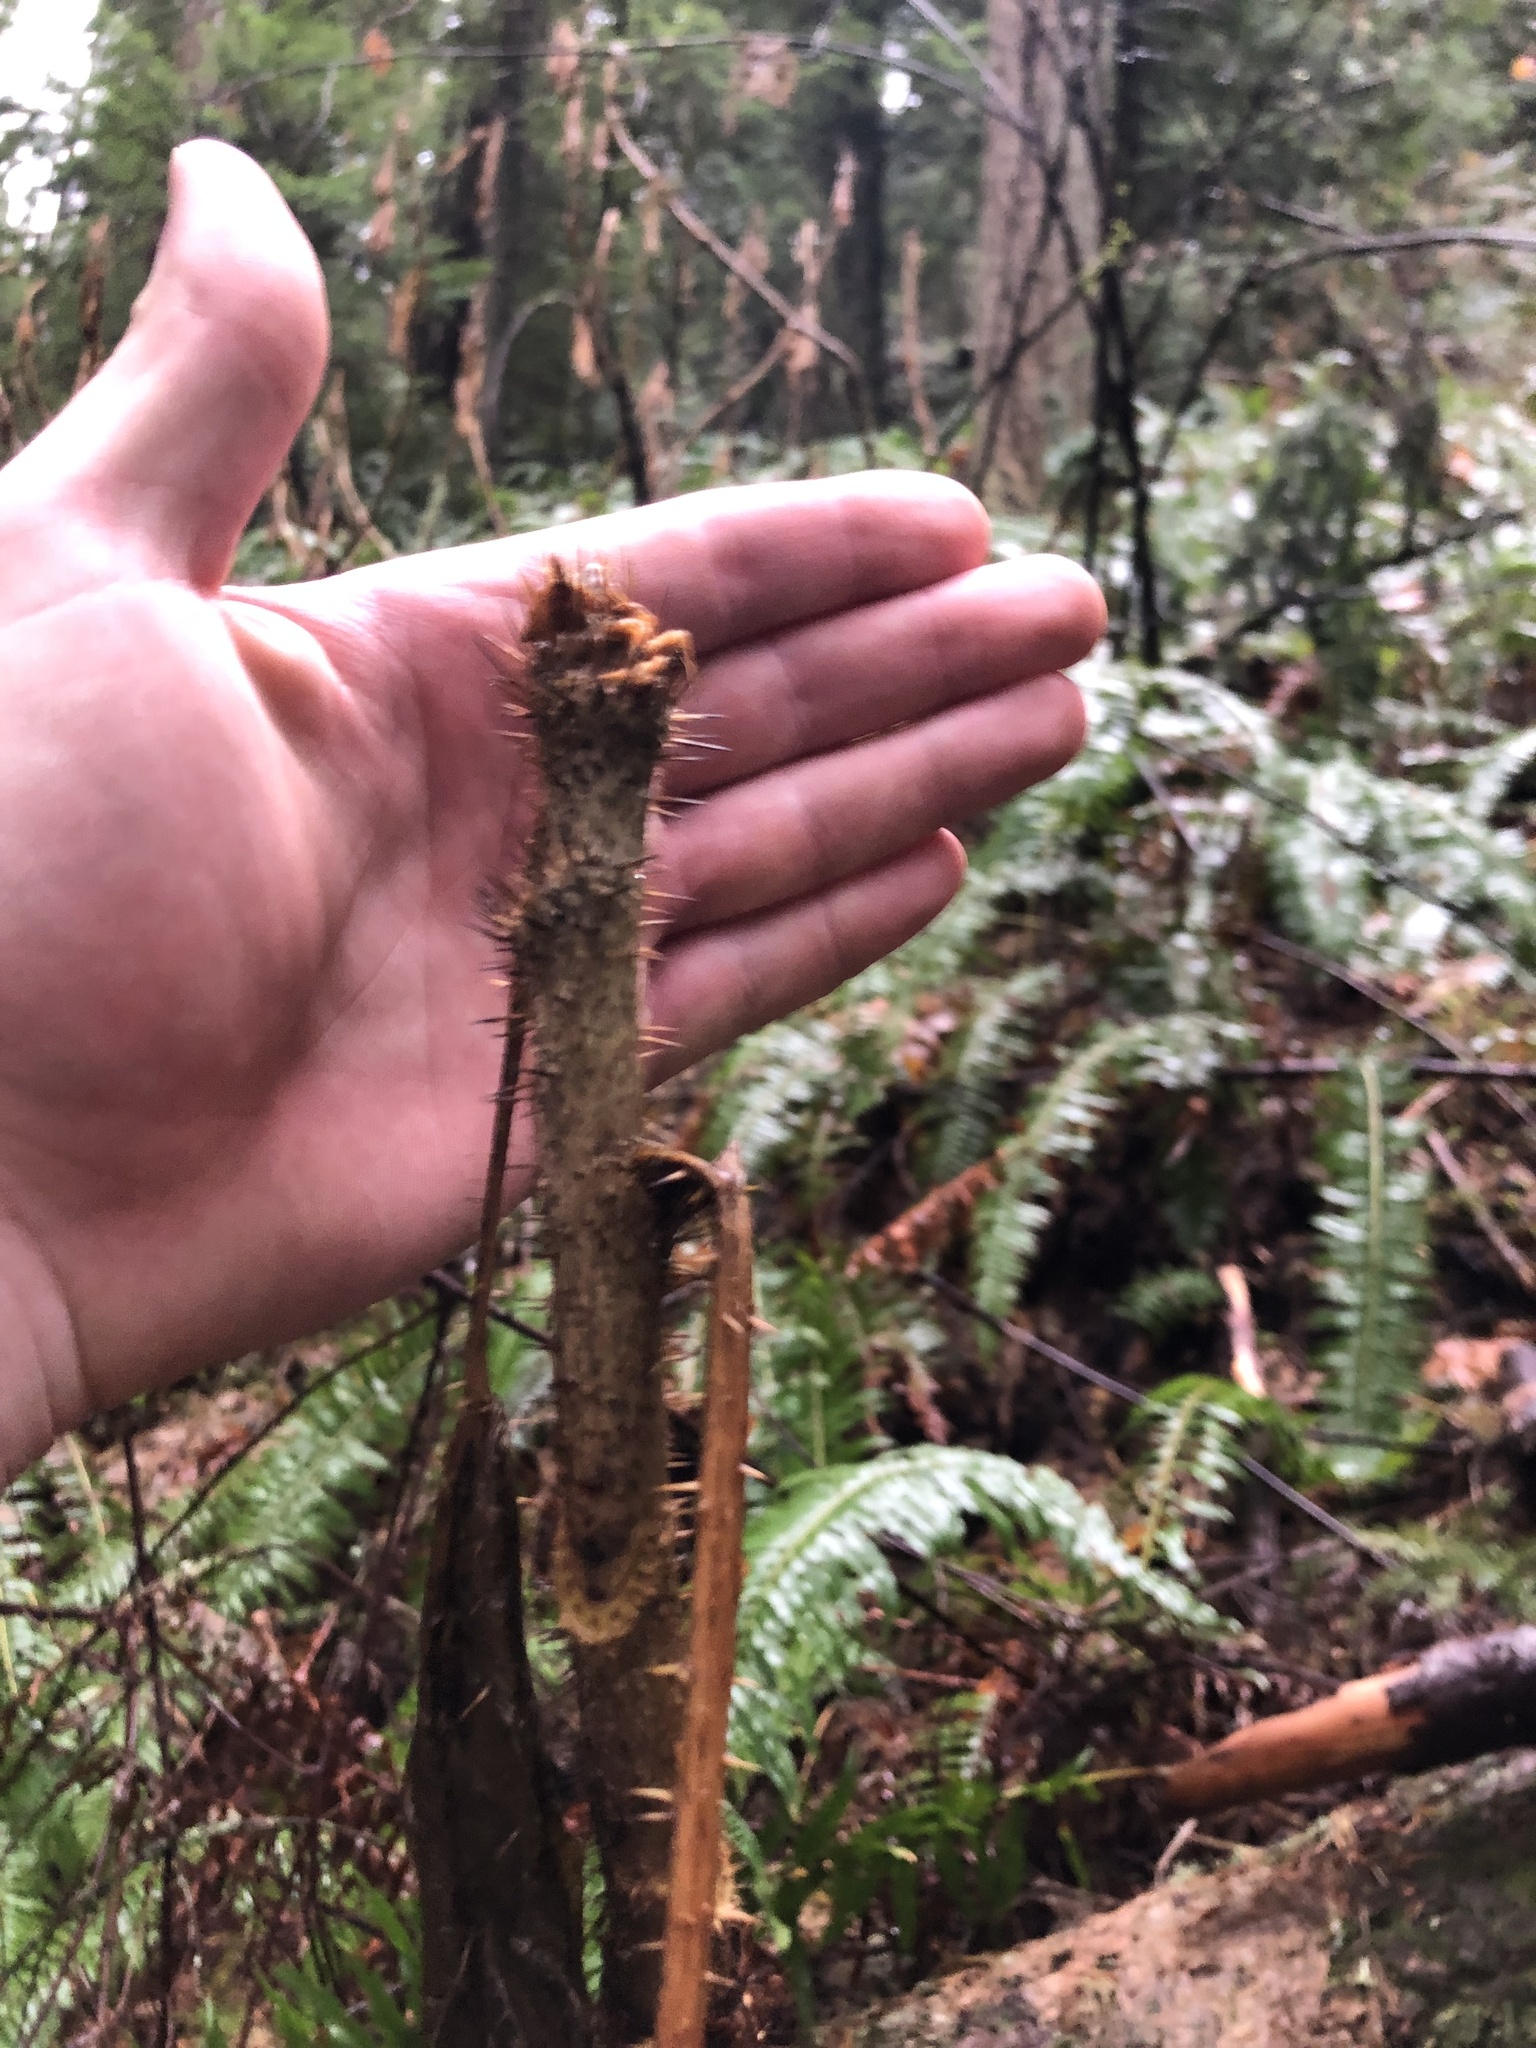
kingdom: Plantae
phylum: Tracheophyta
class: Magnoliopsida
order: Apiales
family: Araliaceae
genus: Oplopanax
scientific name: Oplopanax horridus
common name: Devil's walking-stick
